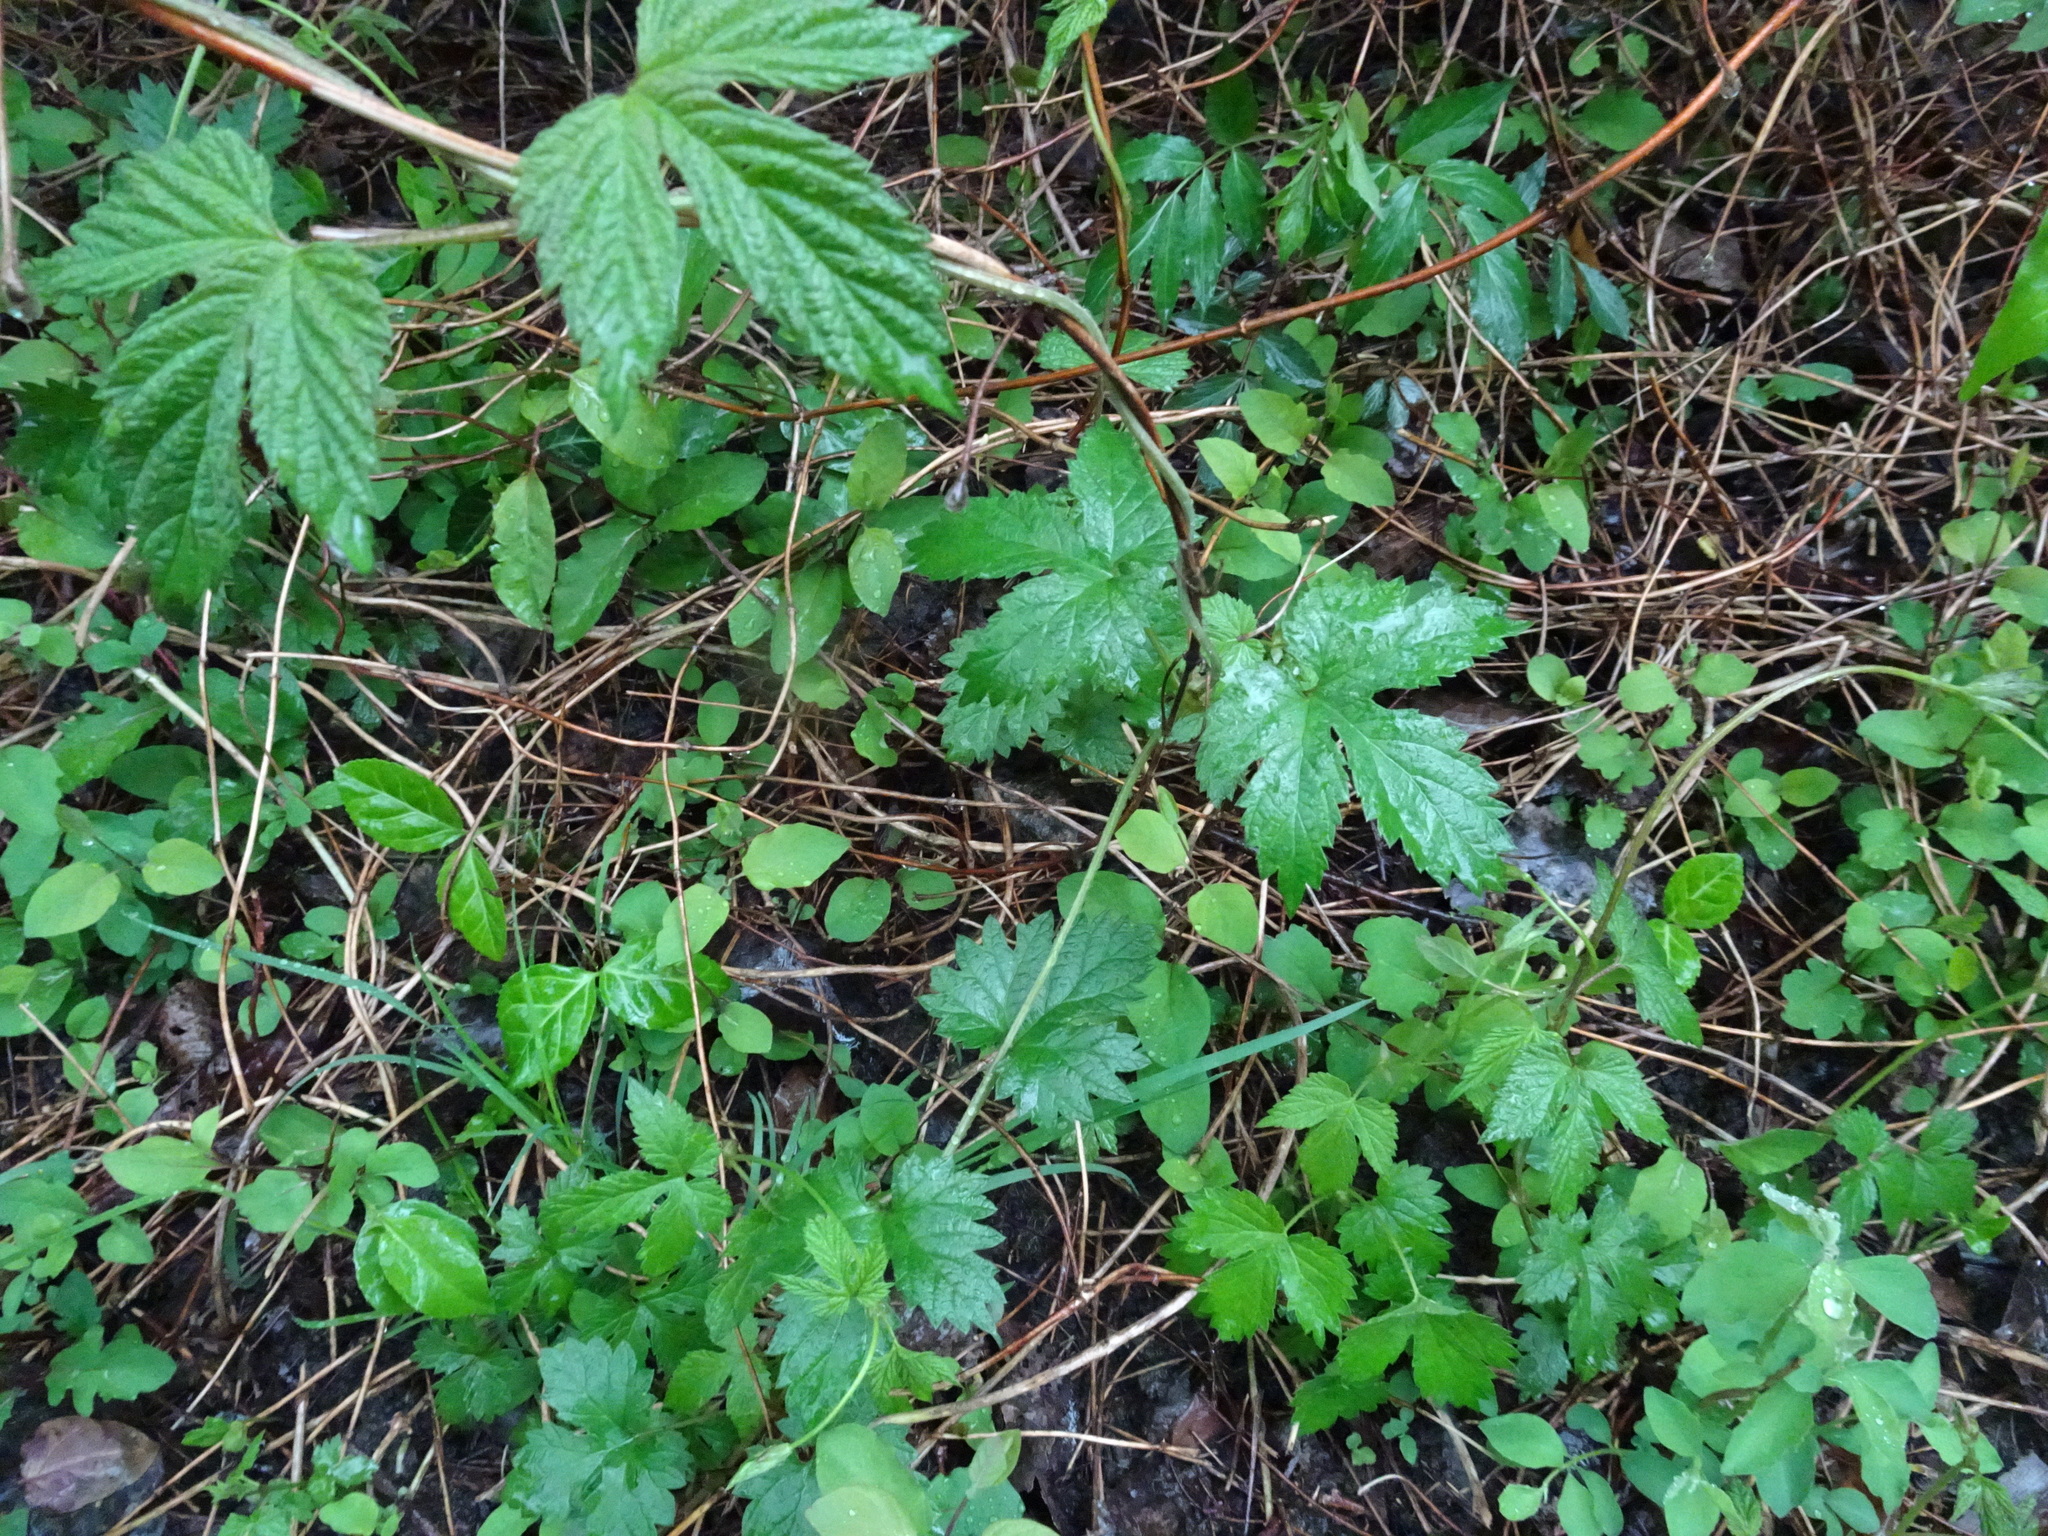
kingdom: Plantae
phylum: Tracheophyta
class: Magnoliopsida
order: Rosales
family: Cannabaceae
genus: Humulus
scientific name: Humulus lupulus
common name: Hop
